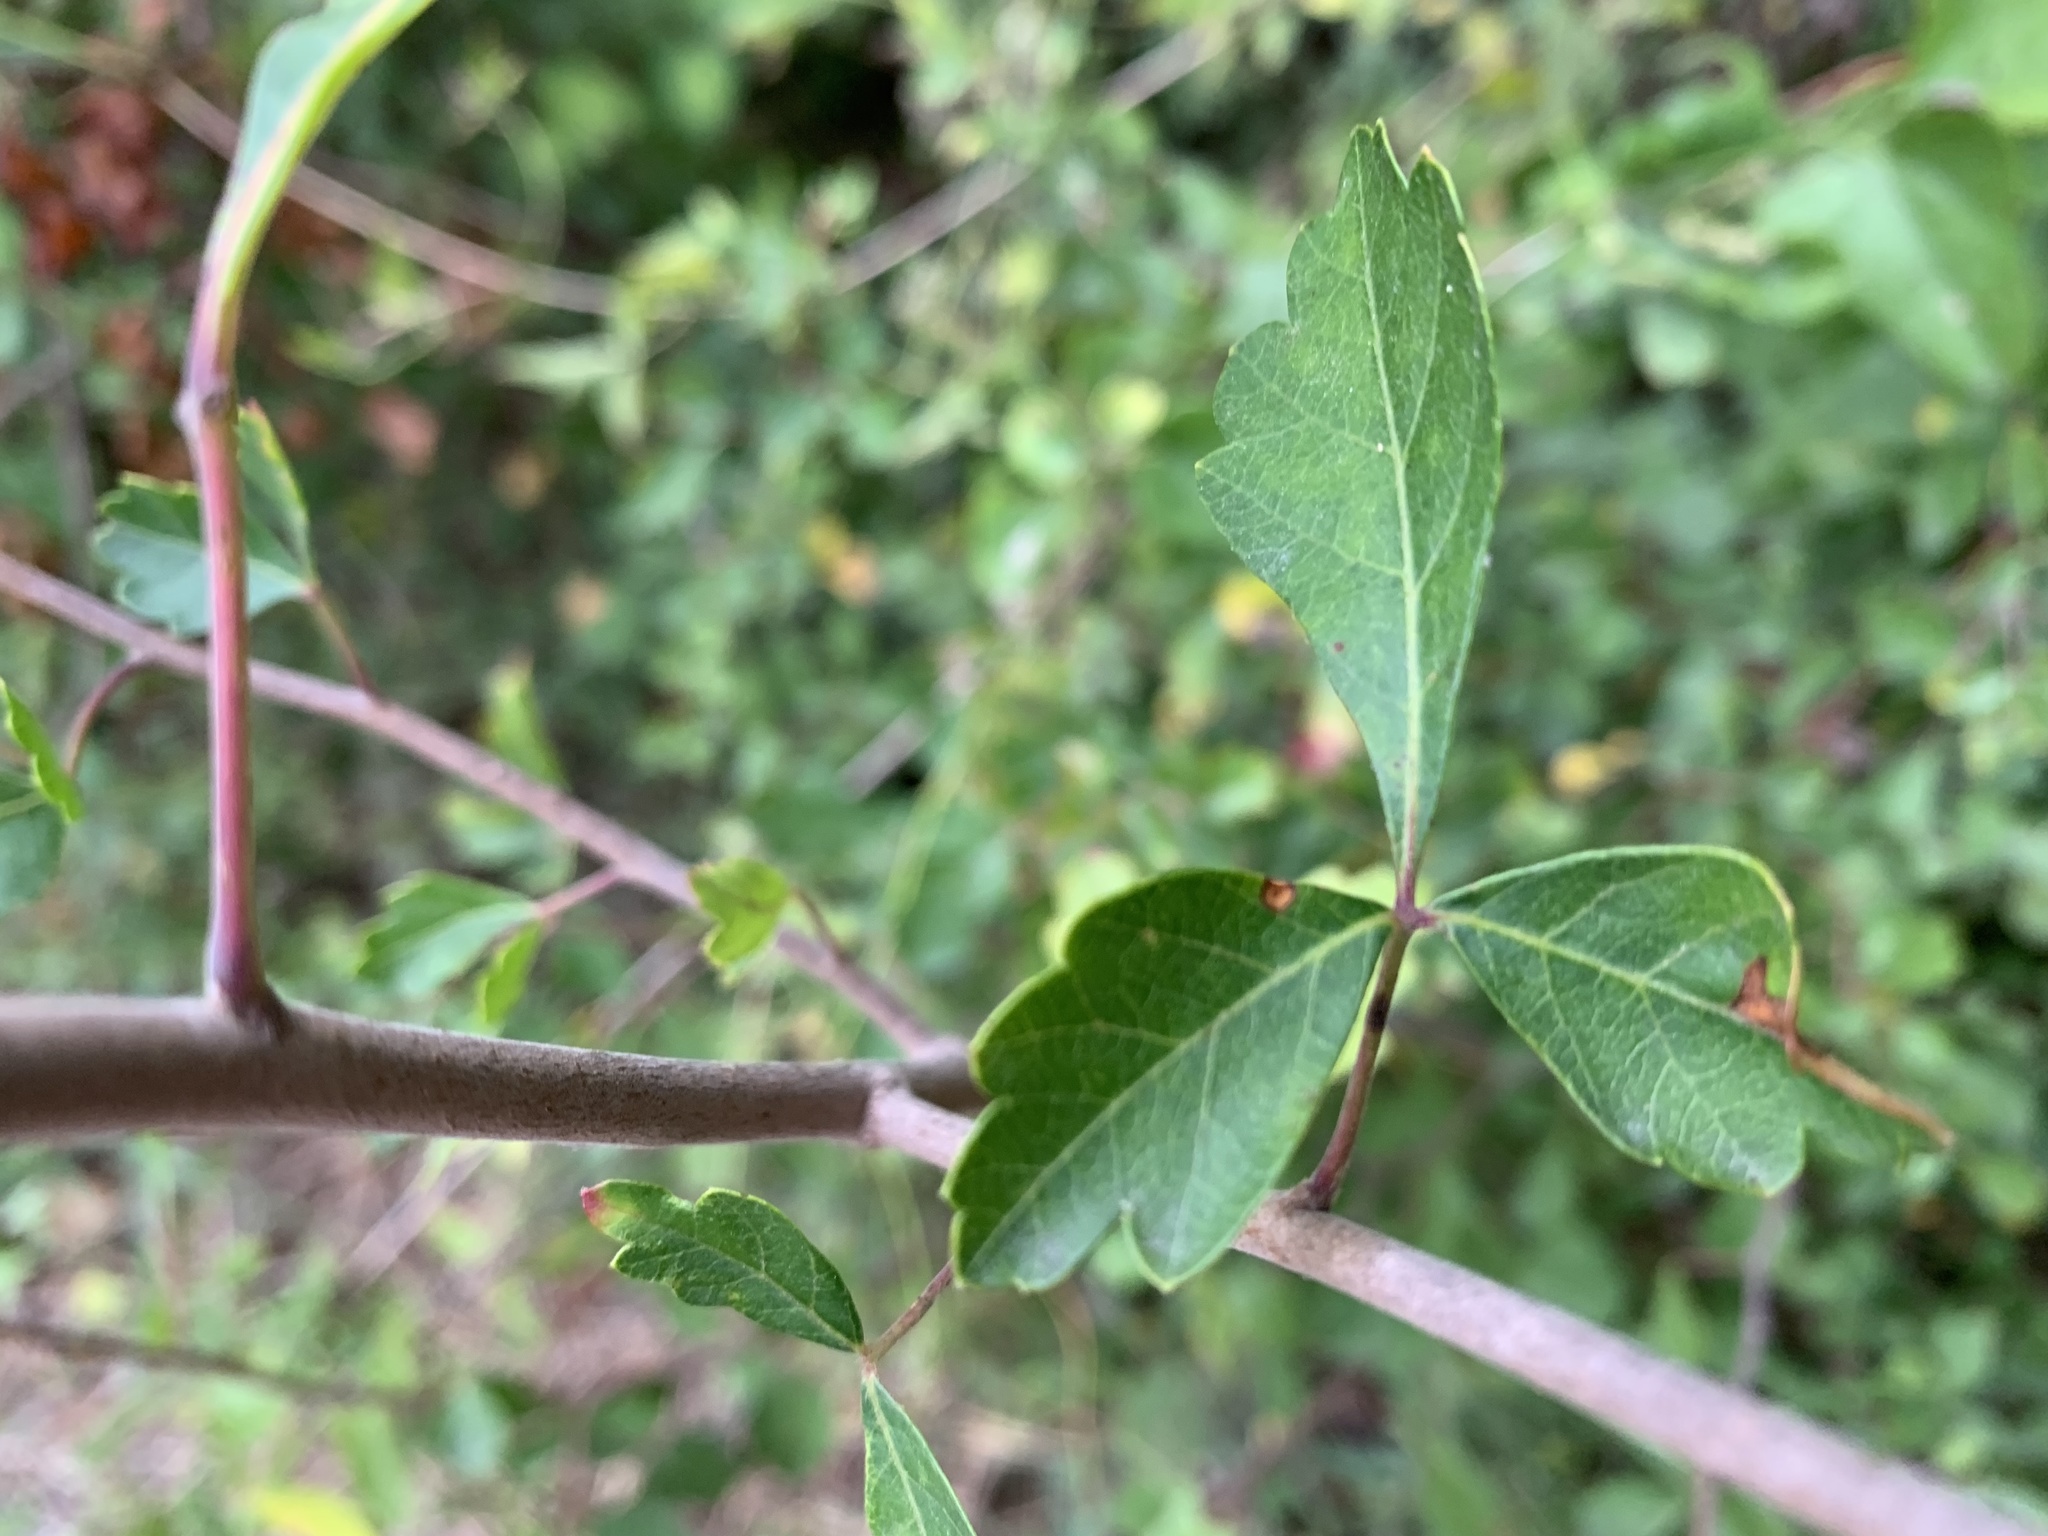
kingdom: Plantae
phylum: Tracheophyta
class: Magnoliopsida
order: Sapindales
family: Anacardiaceae
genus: Rhus
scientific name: Rhus aromatica
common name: Aromatic sumac
